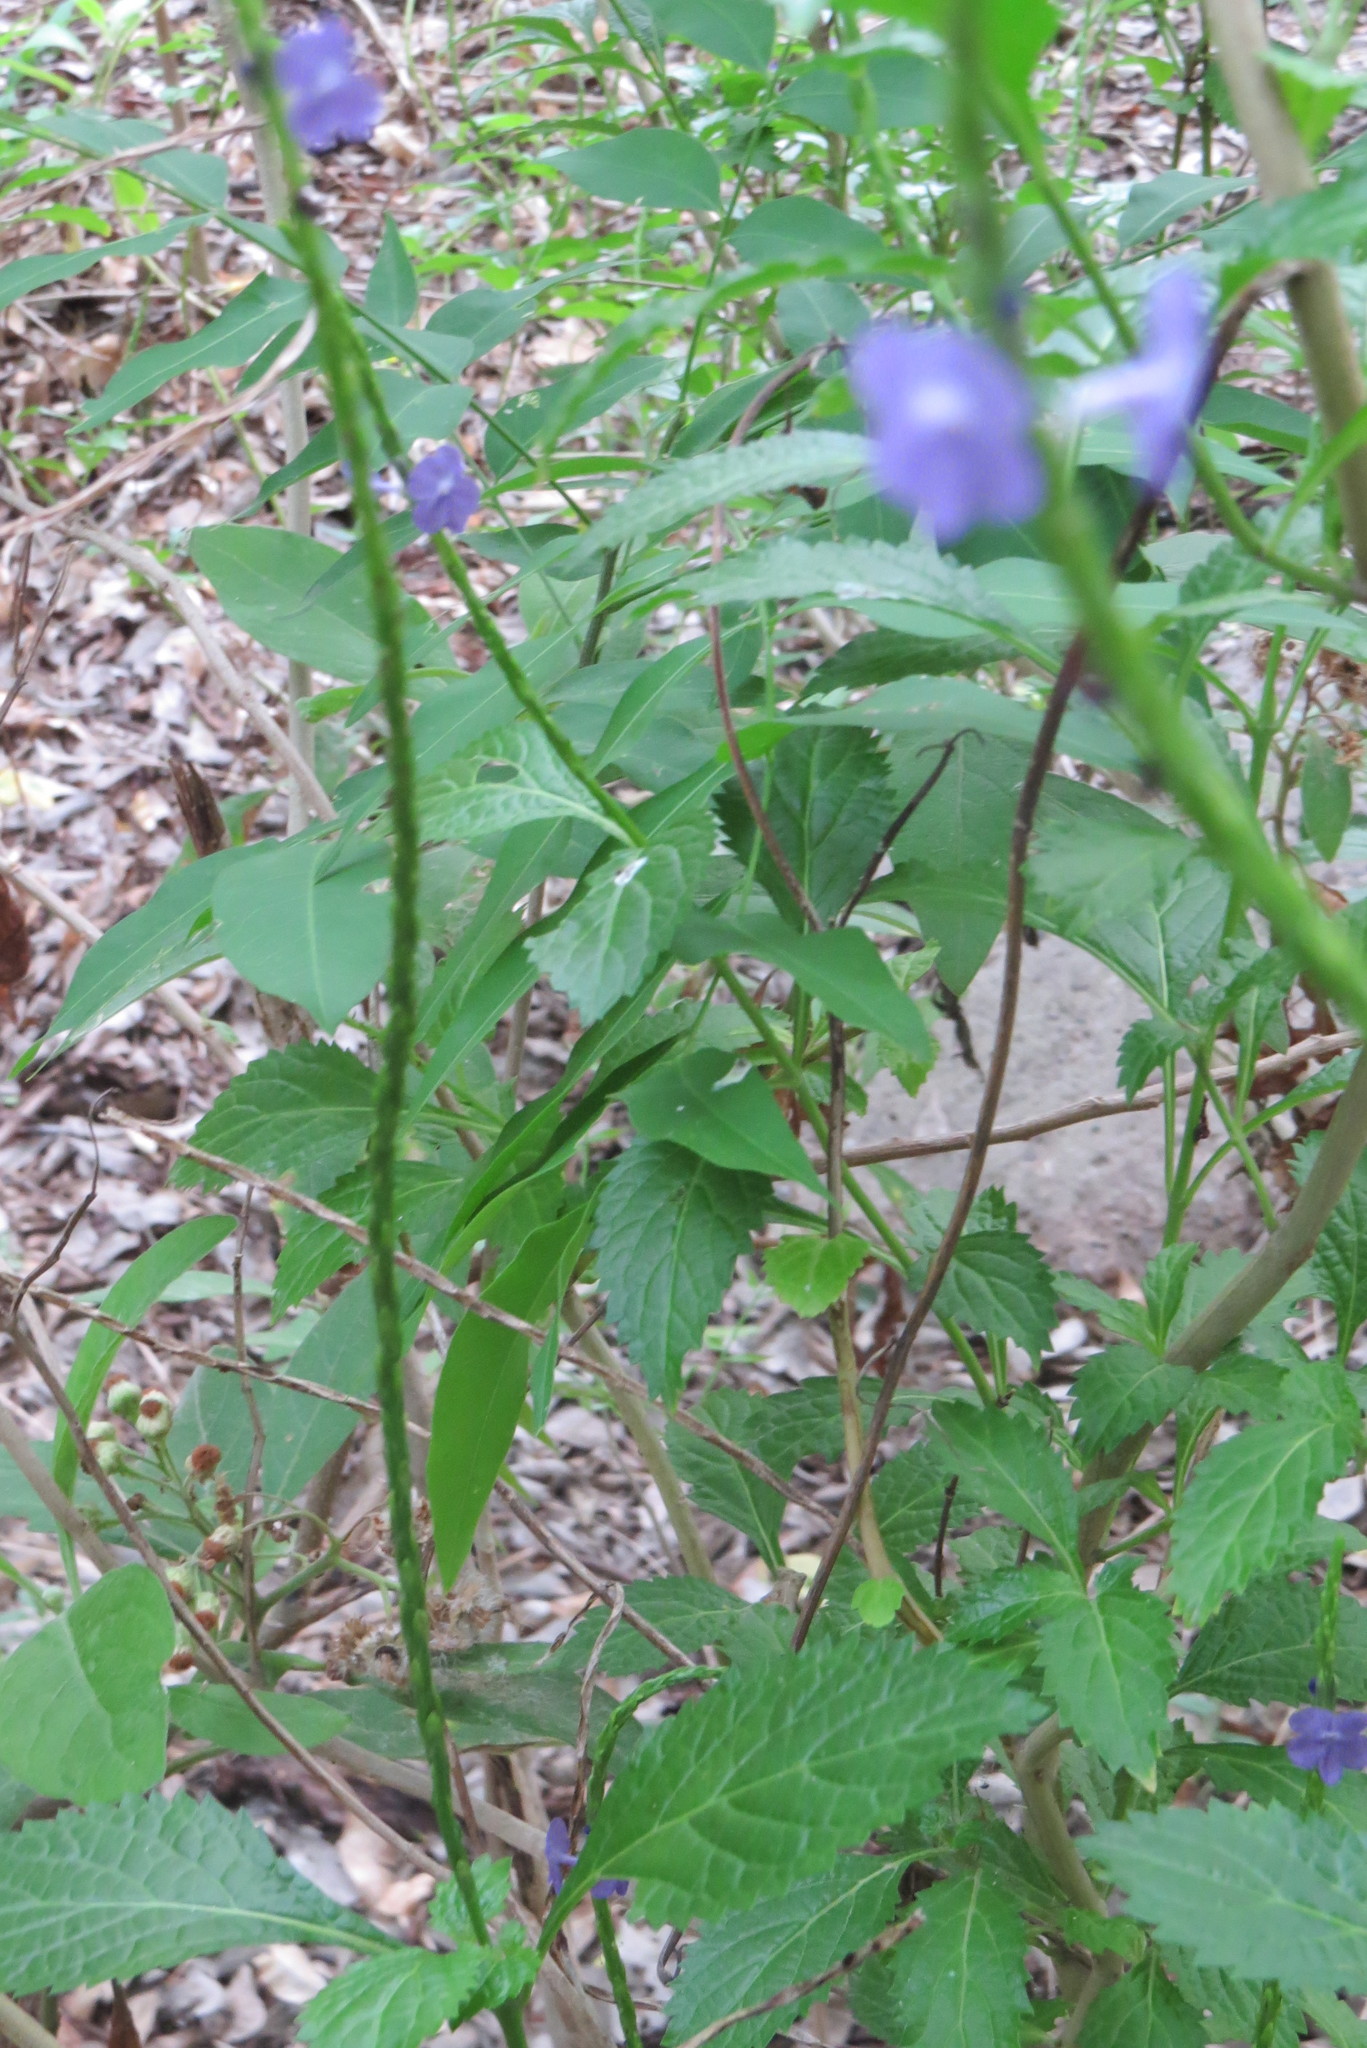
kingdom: Plantae
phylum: Tracheophyta
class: Magnoliopsida
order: Lamiales
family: Verbenaceae
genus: Stachytarpheta
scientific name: Stachytarpheta jamaicensis
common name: Light-blue snakeweed
